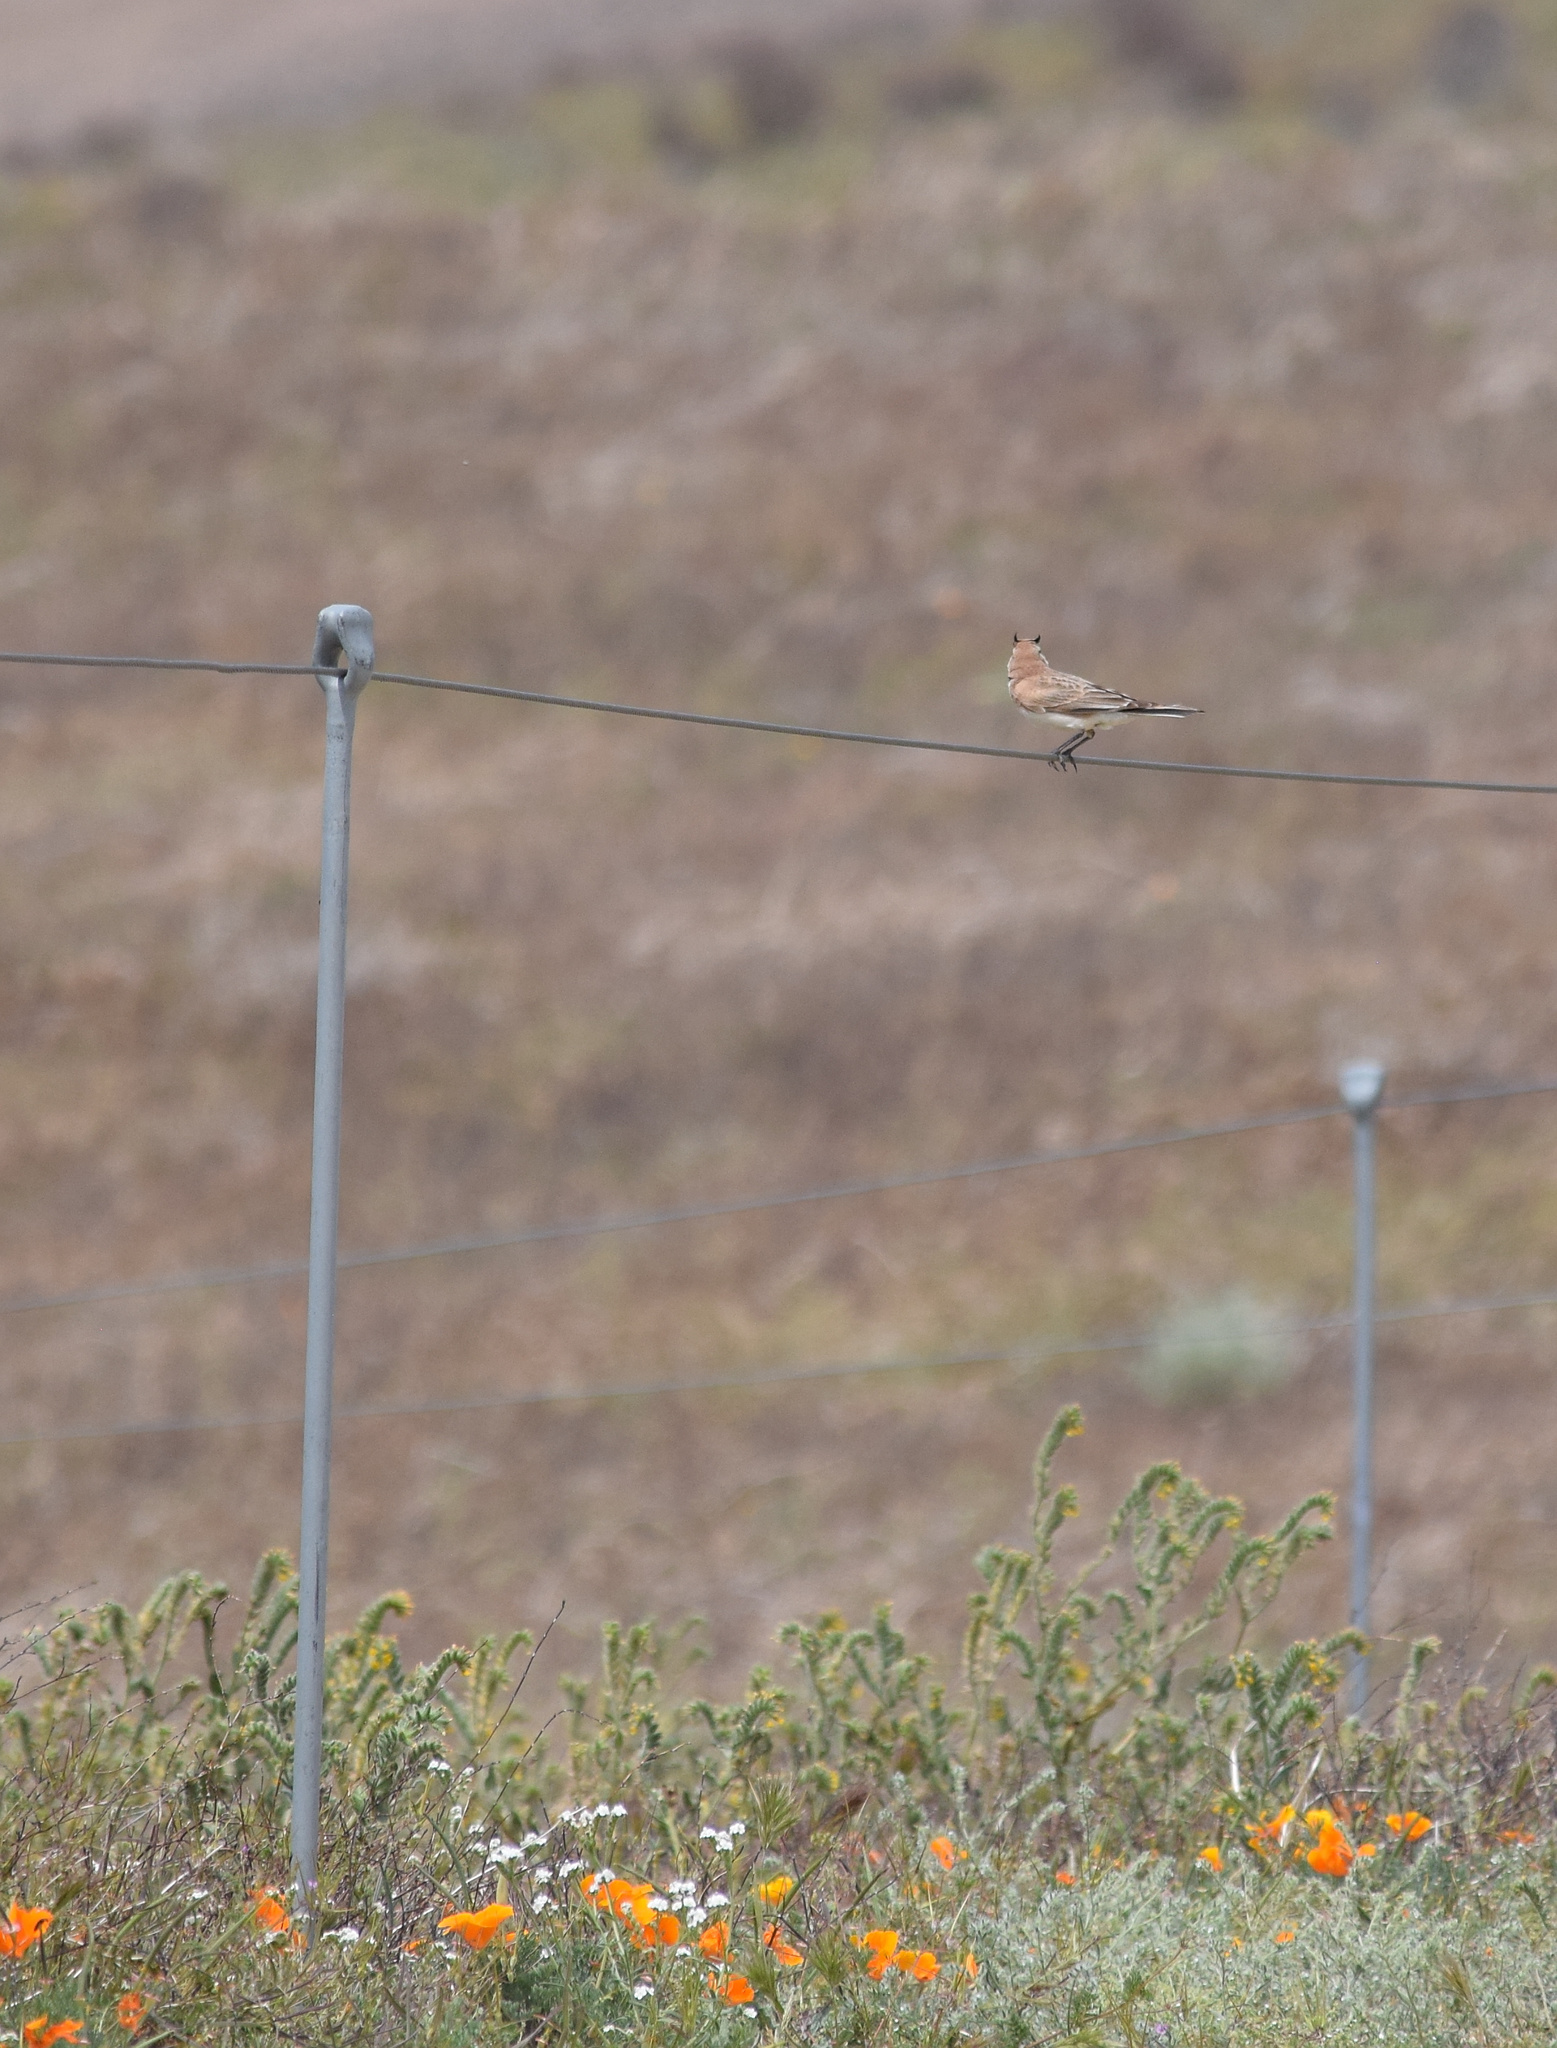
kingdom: Animalia
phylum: Chordata
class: Aves
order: Passeriformes
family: Alaudidae
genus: Eremophila
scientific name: Eremophila alpestris
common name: Horned lark
